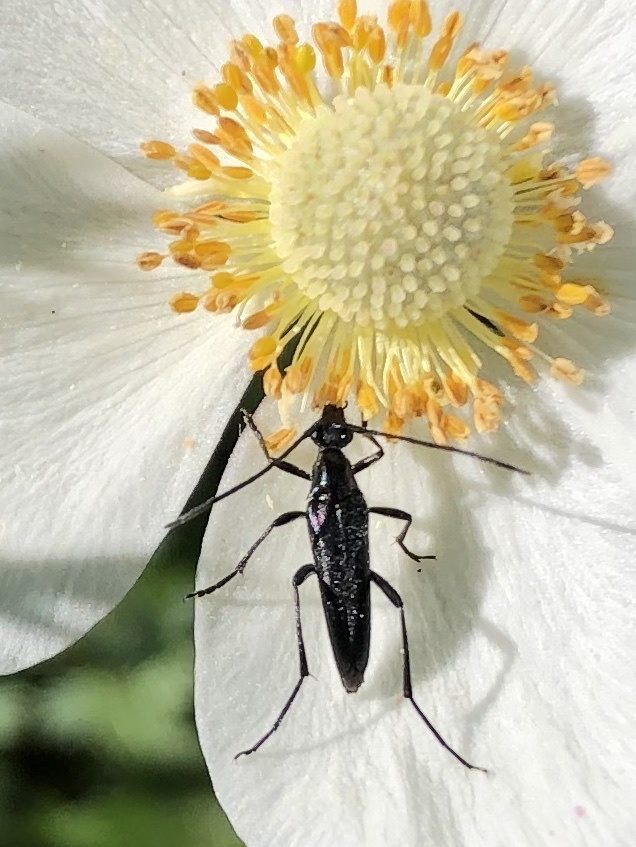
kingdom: Animalia
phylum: Arthropoda
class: Insecta
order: Coleoptera
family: Cerambycidae
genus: Stenurella
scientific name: Stenurella nigra
